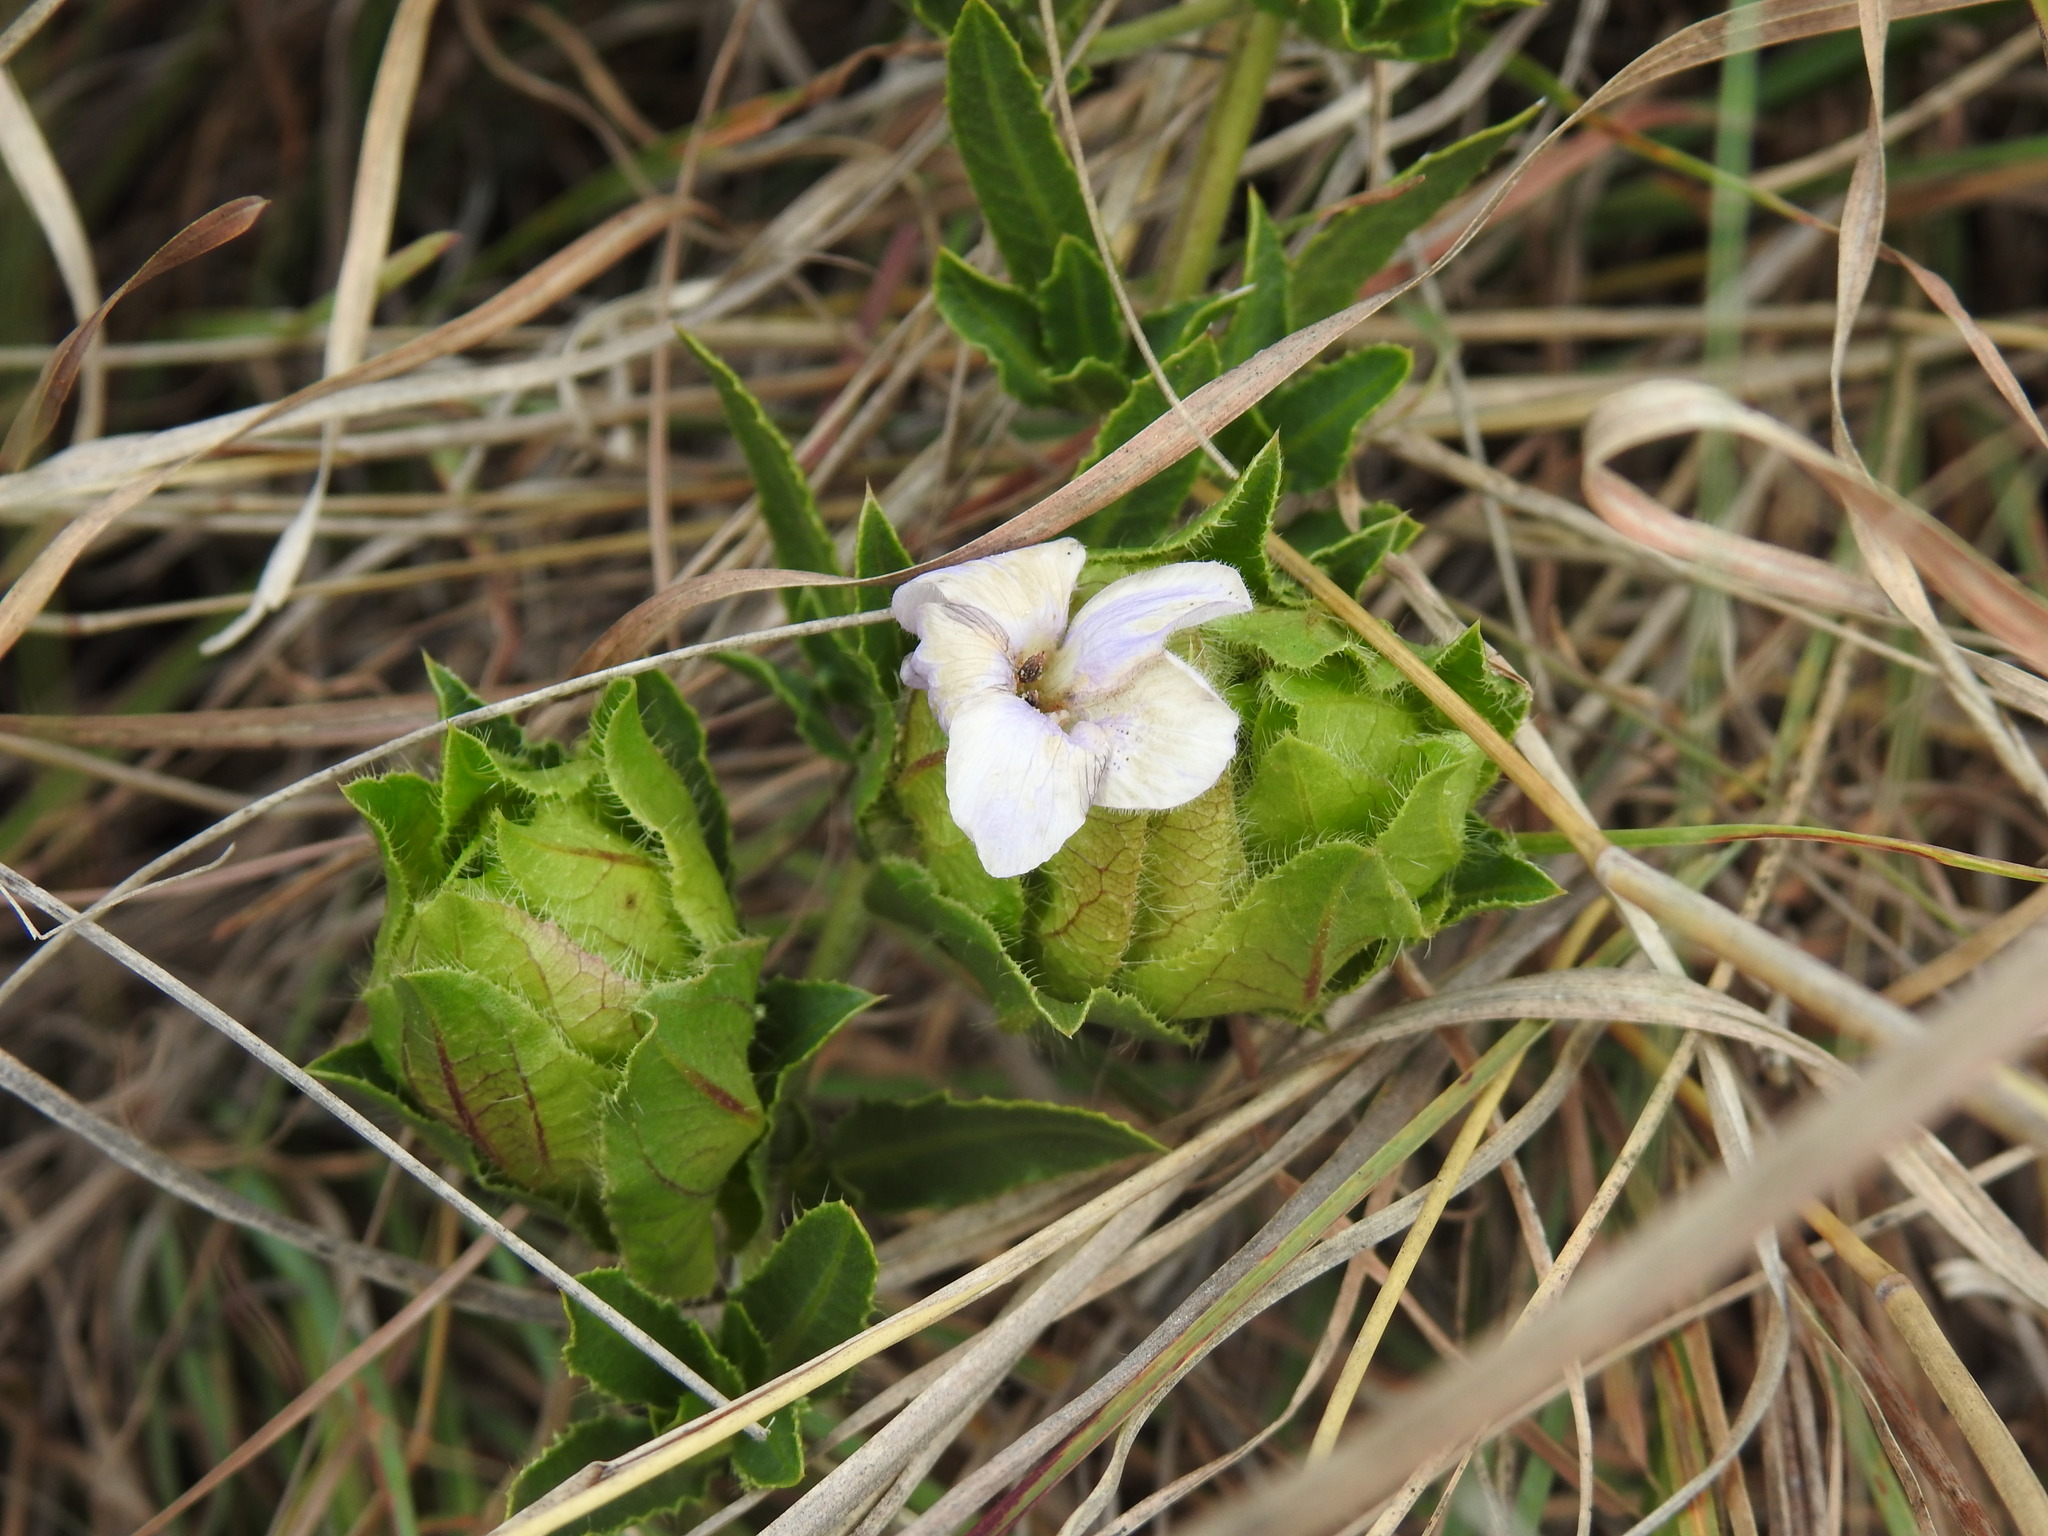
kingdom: Plantae
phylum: Tracheophyta
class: Magnoliopsida
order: Lamiales
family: Acanthaceae
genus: Crabbea
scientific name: Crabbea cirsioides
